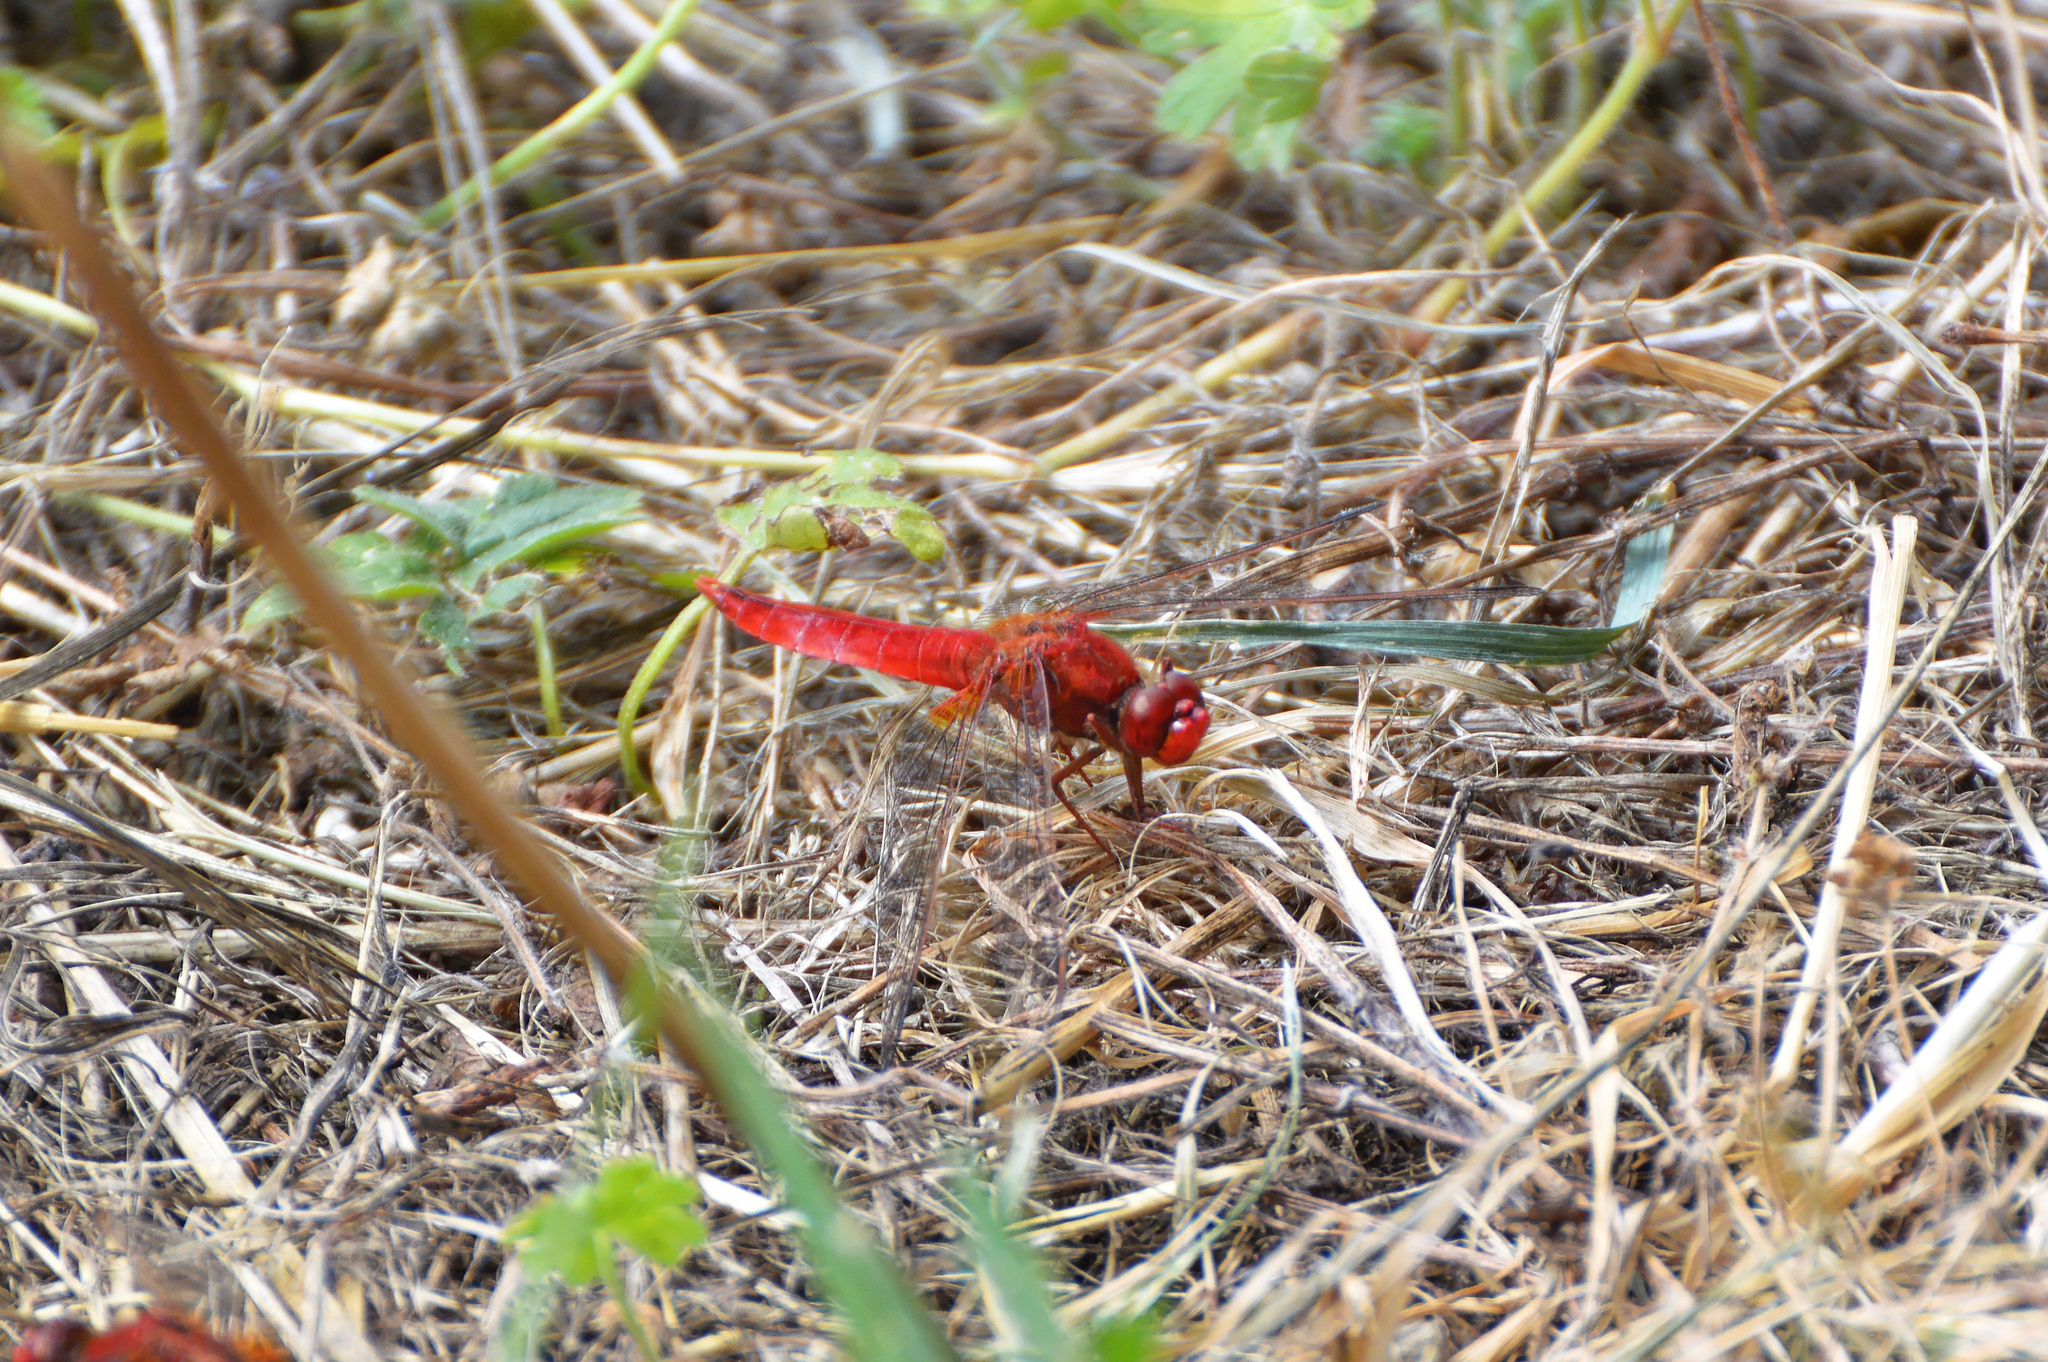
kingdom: Animalia
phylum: Arthropoda
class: Insecta
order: Odonata
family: Libellulidae
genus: Crocothemis
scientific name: Crocothemis erythraea
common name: Scarlet dragonfly
